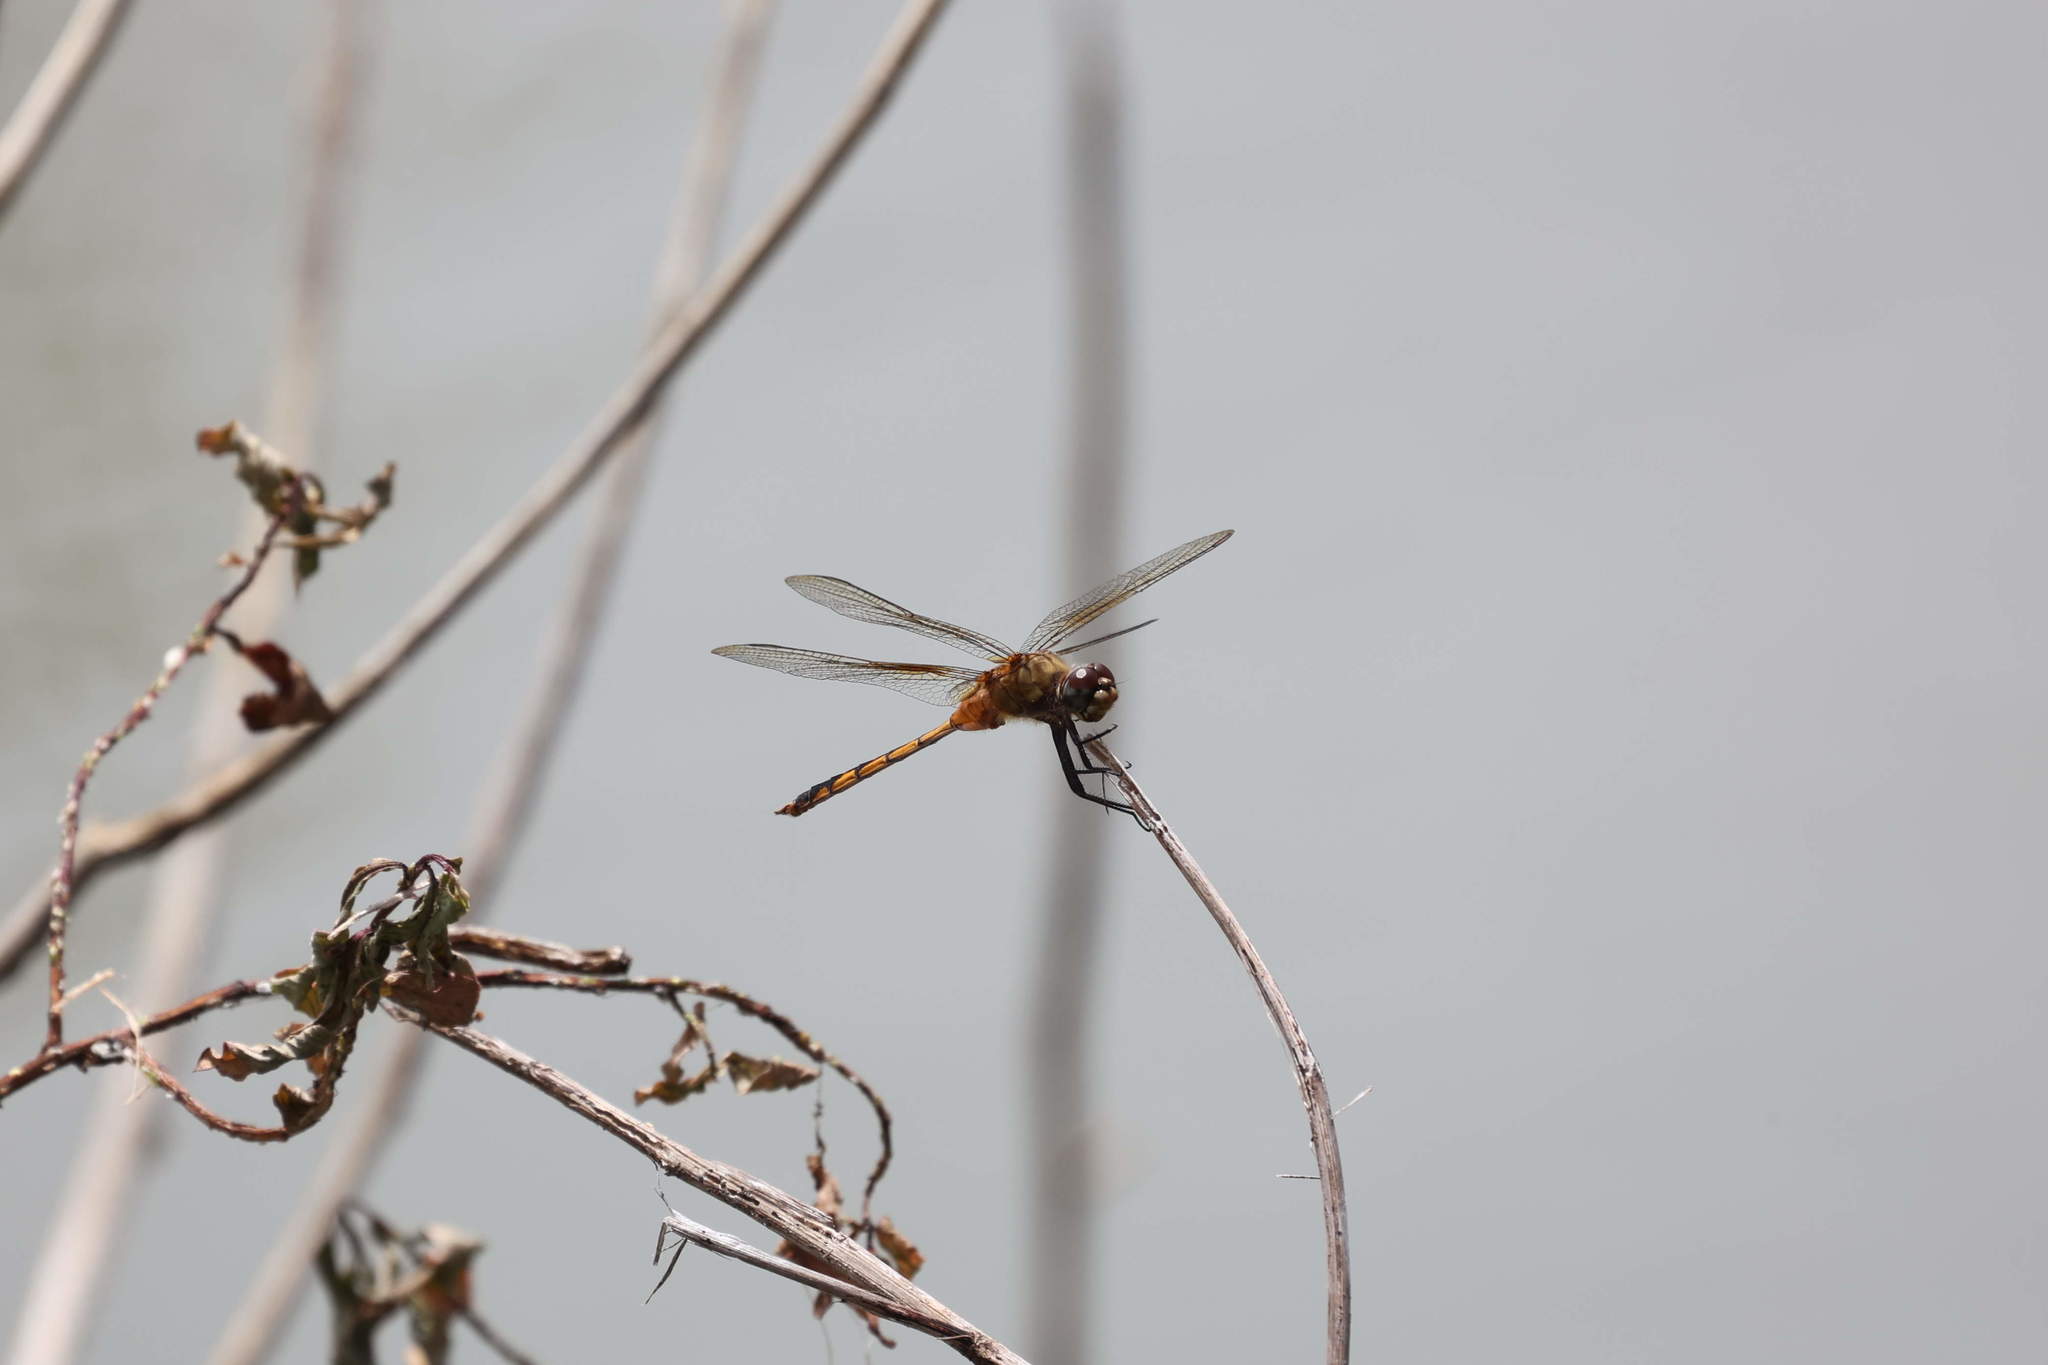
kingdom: Animalia
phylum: Arthropoda
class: Insecta
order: Odonata
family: Libellulidae
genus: Brachymesia
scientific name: Brachymesia herbida
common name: Tawny pennant
